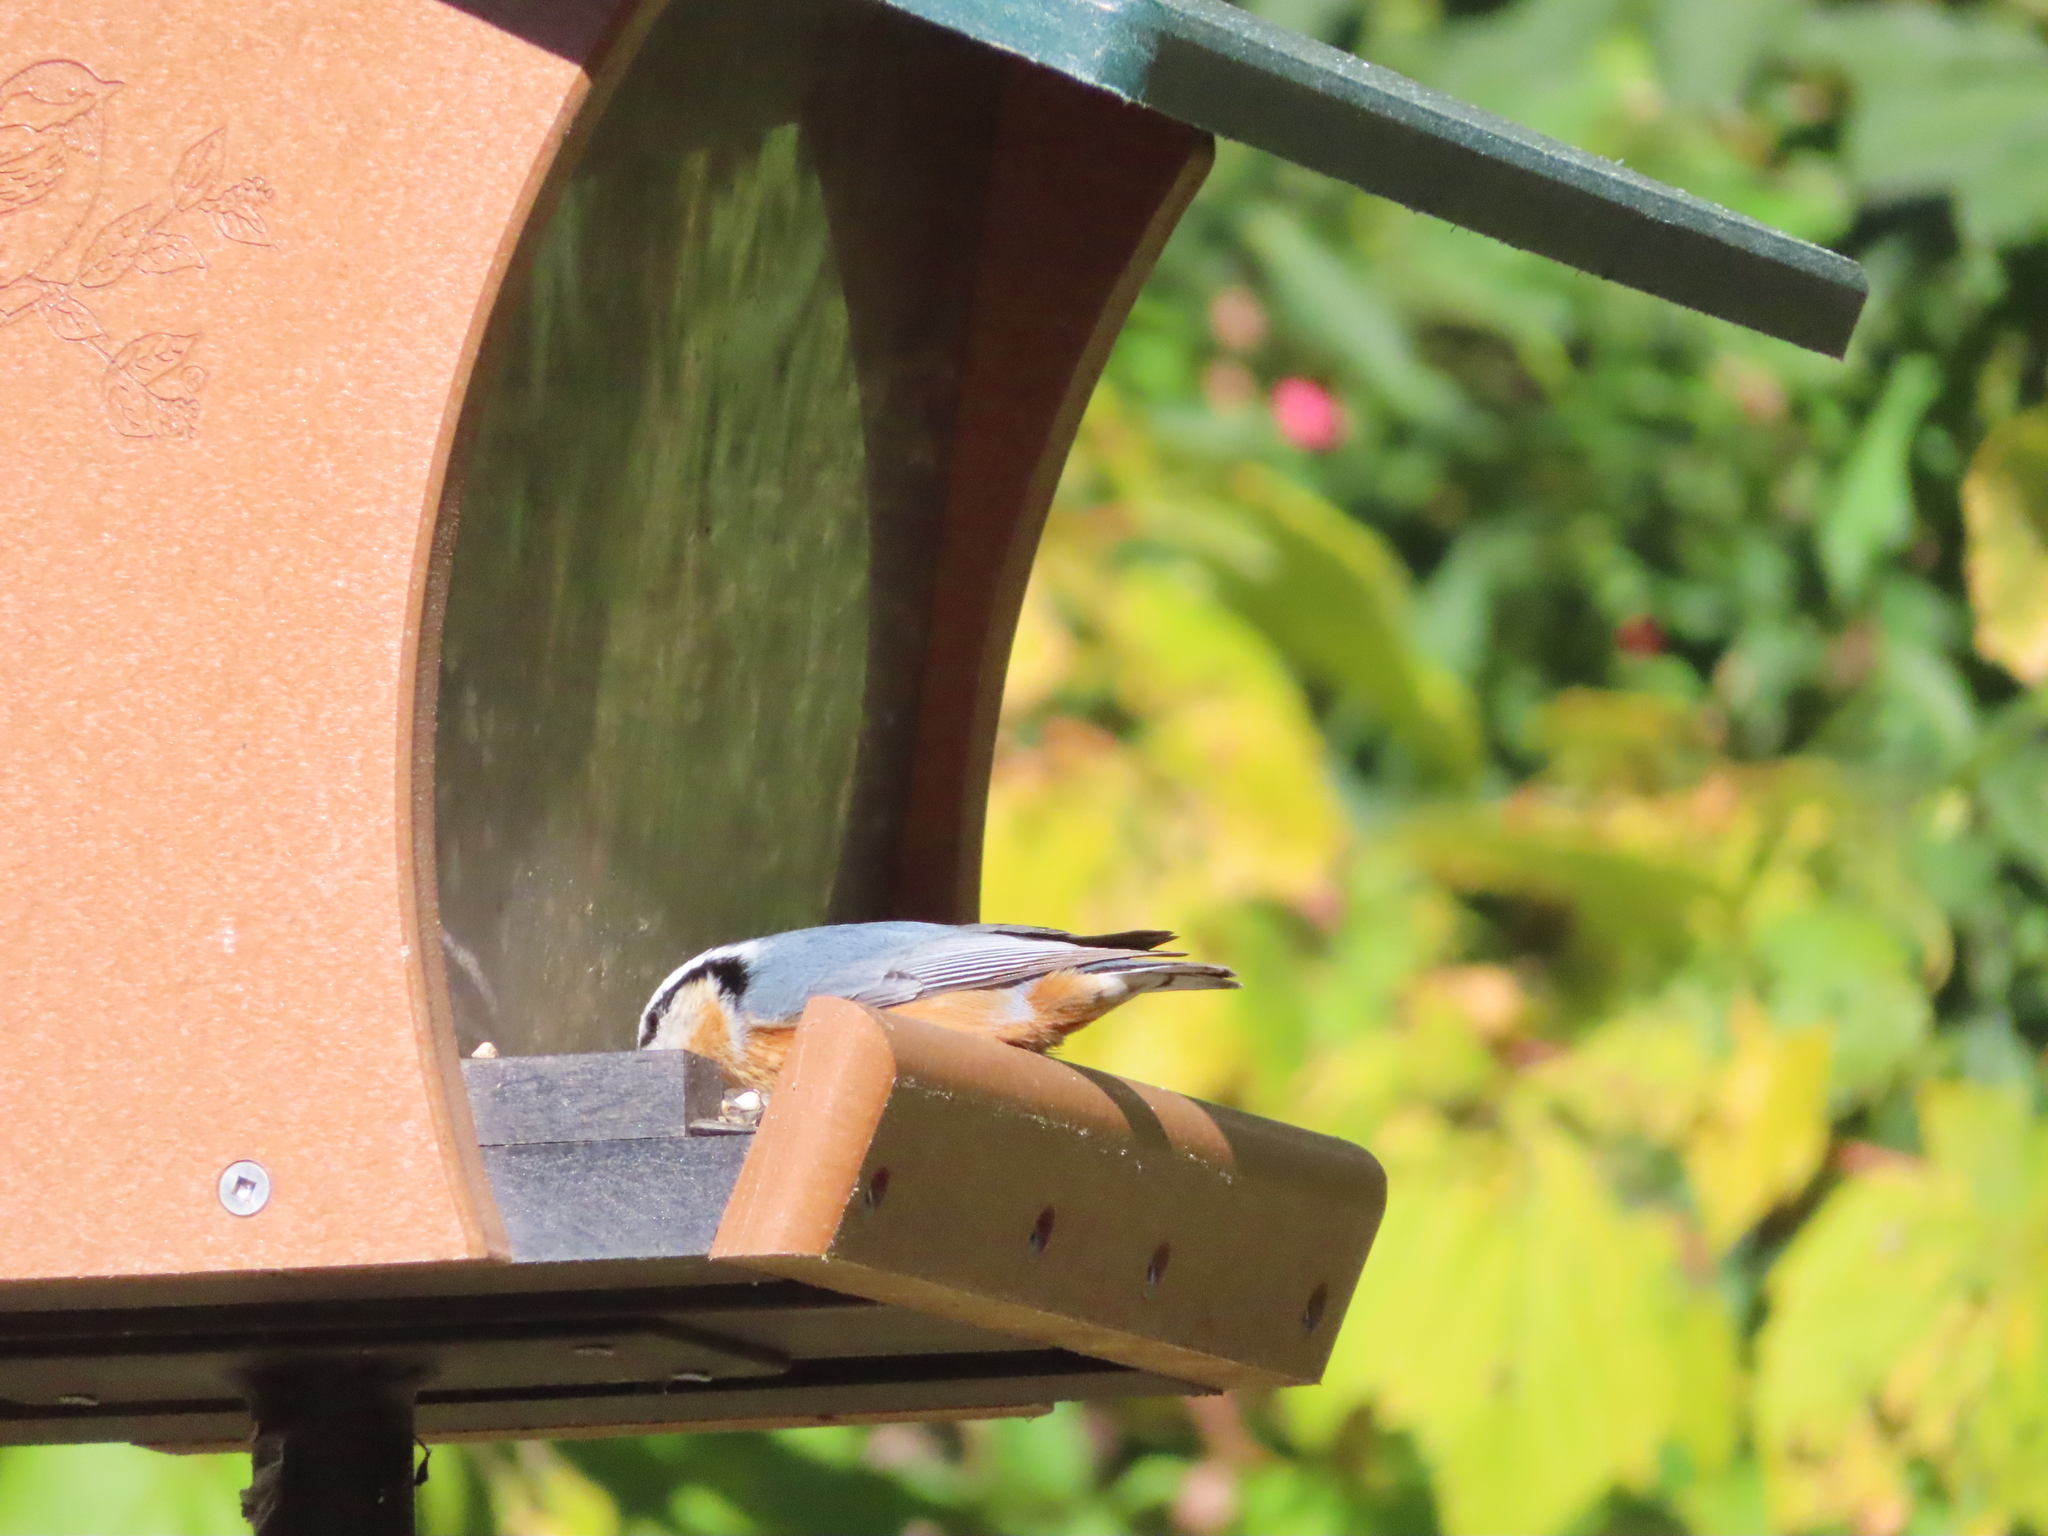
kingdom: Animalia
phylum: Chordata
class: Aves
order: Passeriformes
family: Sittidae
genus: Sitta
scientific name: Sitta canadensis
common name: Red-breasted nuthatch
